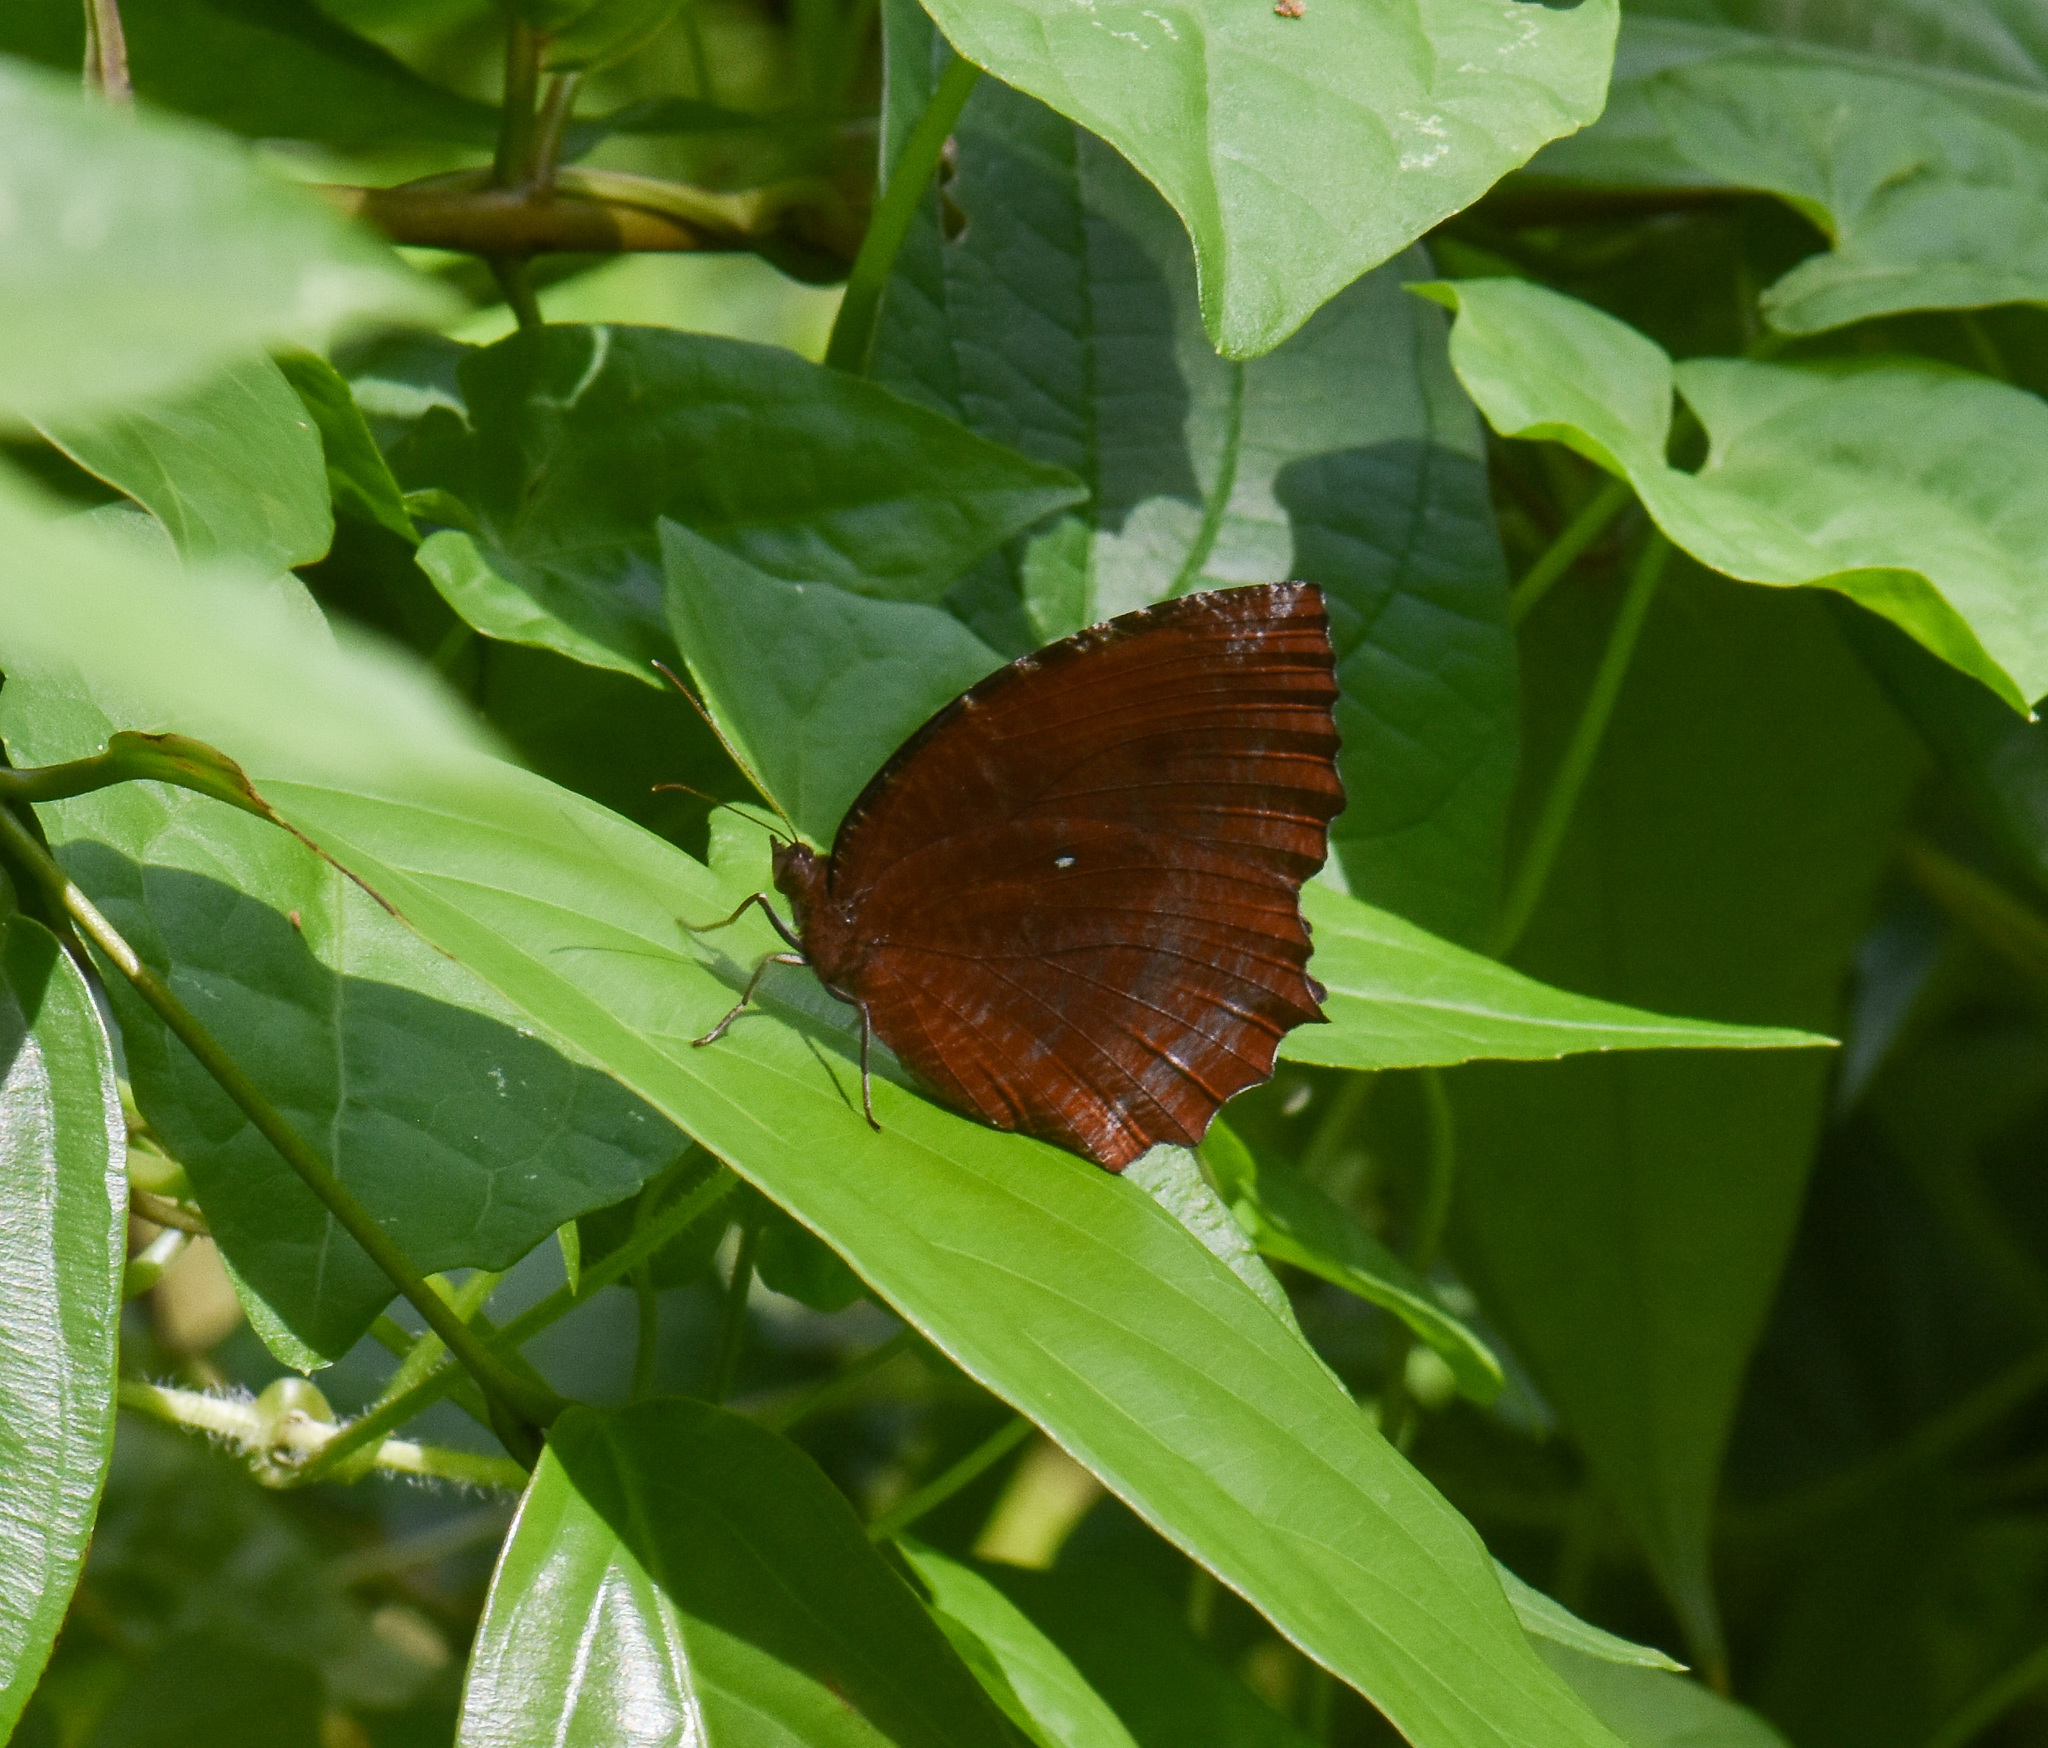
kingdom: Animalia
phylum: Arthropoda
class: Insecta
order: Lepidoptera
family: Nymphalidae
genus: Elymnias
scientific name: Elymnias hypermnestra
